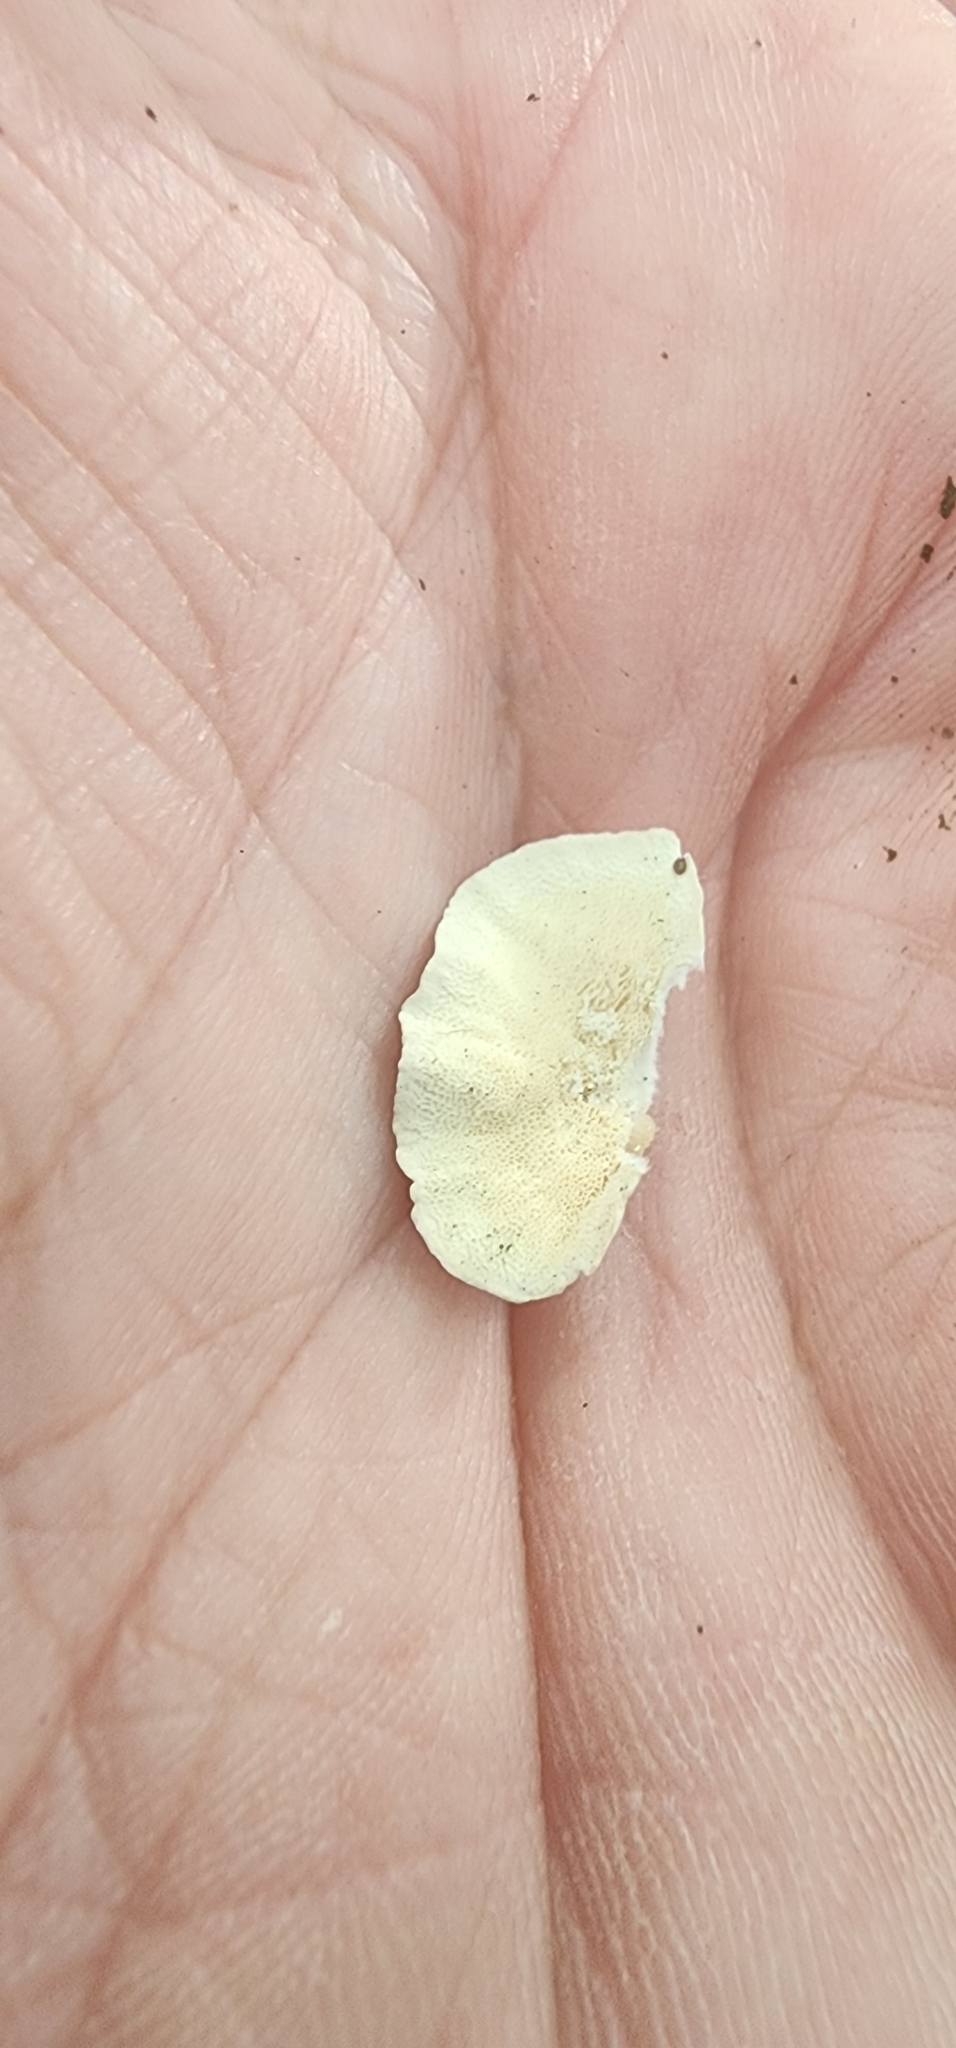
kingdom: Fungi
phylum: Basidiomycota
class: Agaricomycetes
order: Polyporales
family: Polyporaceae
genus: Trametes
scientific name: Trametes versicolor
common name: Turkeytail
